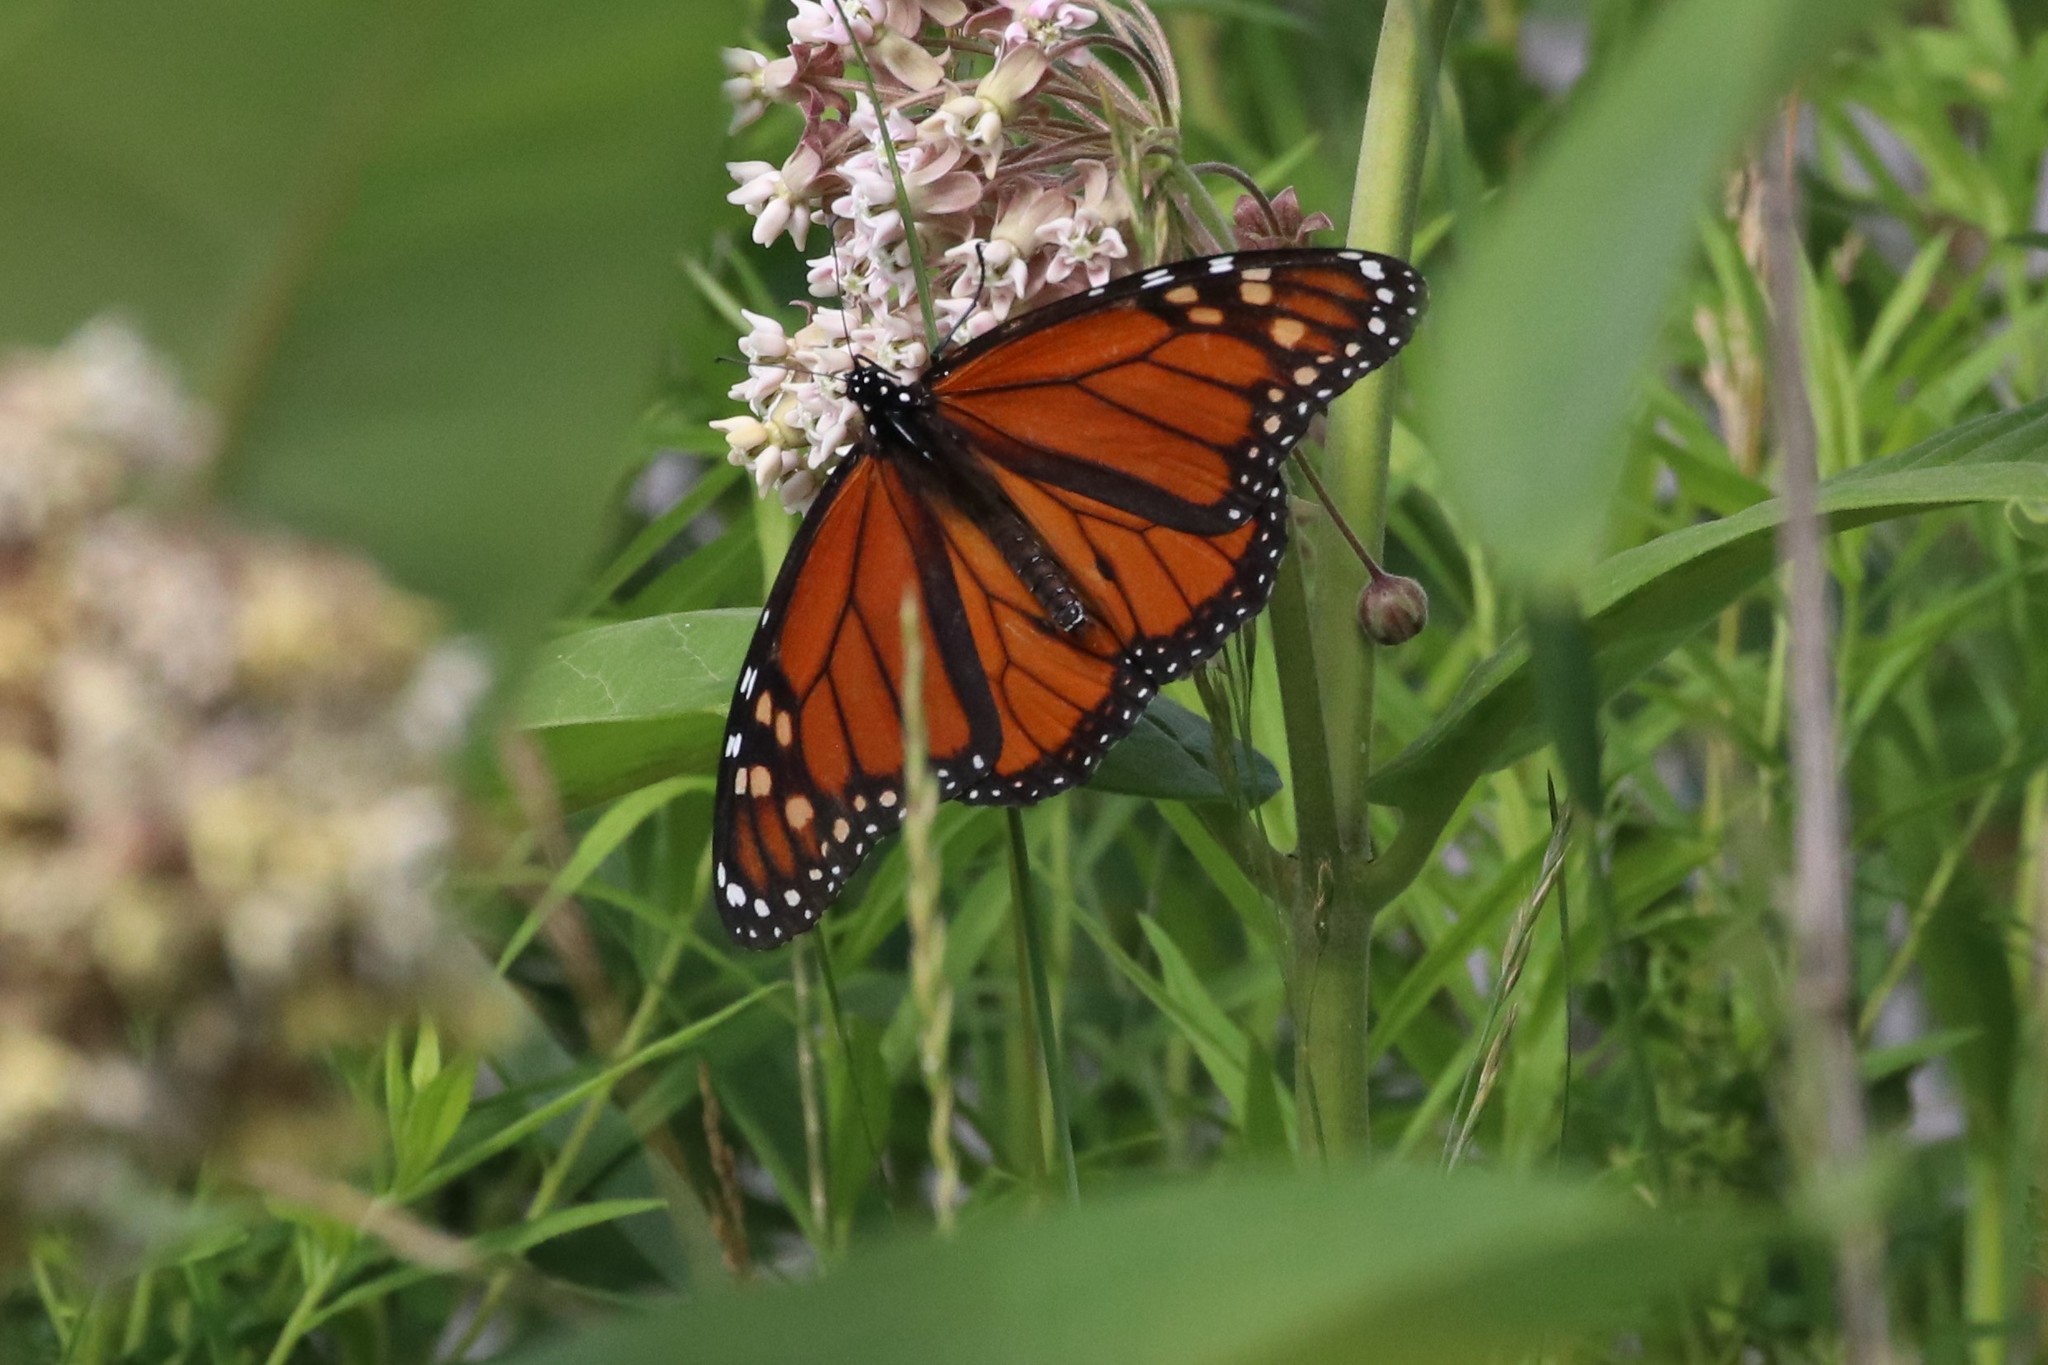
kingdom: Animalia
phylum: Arthropoda
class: Insecta
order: Lepidoptera
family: Nymphalidae
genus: Danaus
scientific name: Danaus plexippus
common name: Monarch
